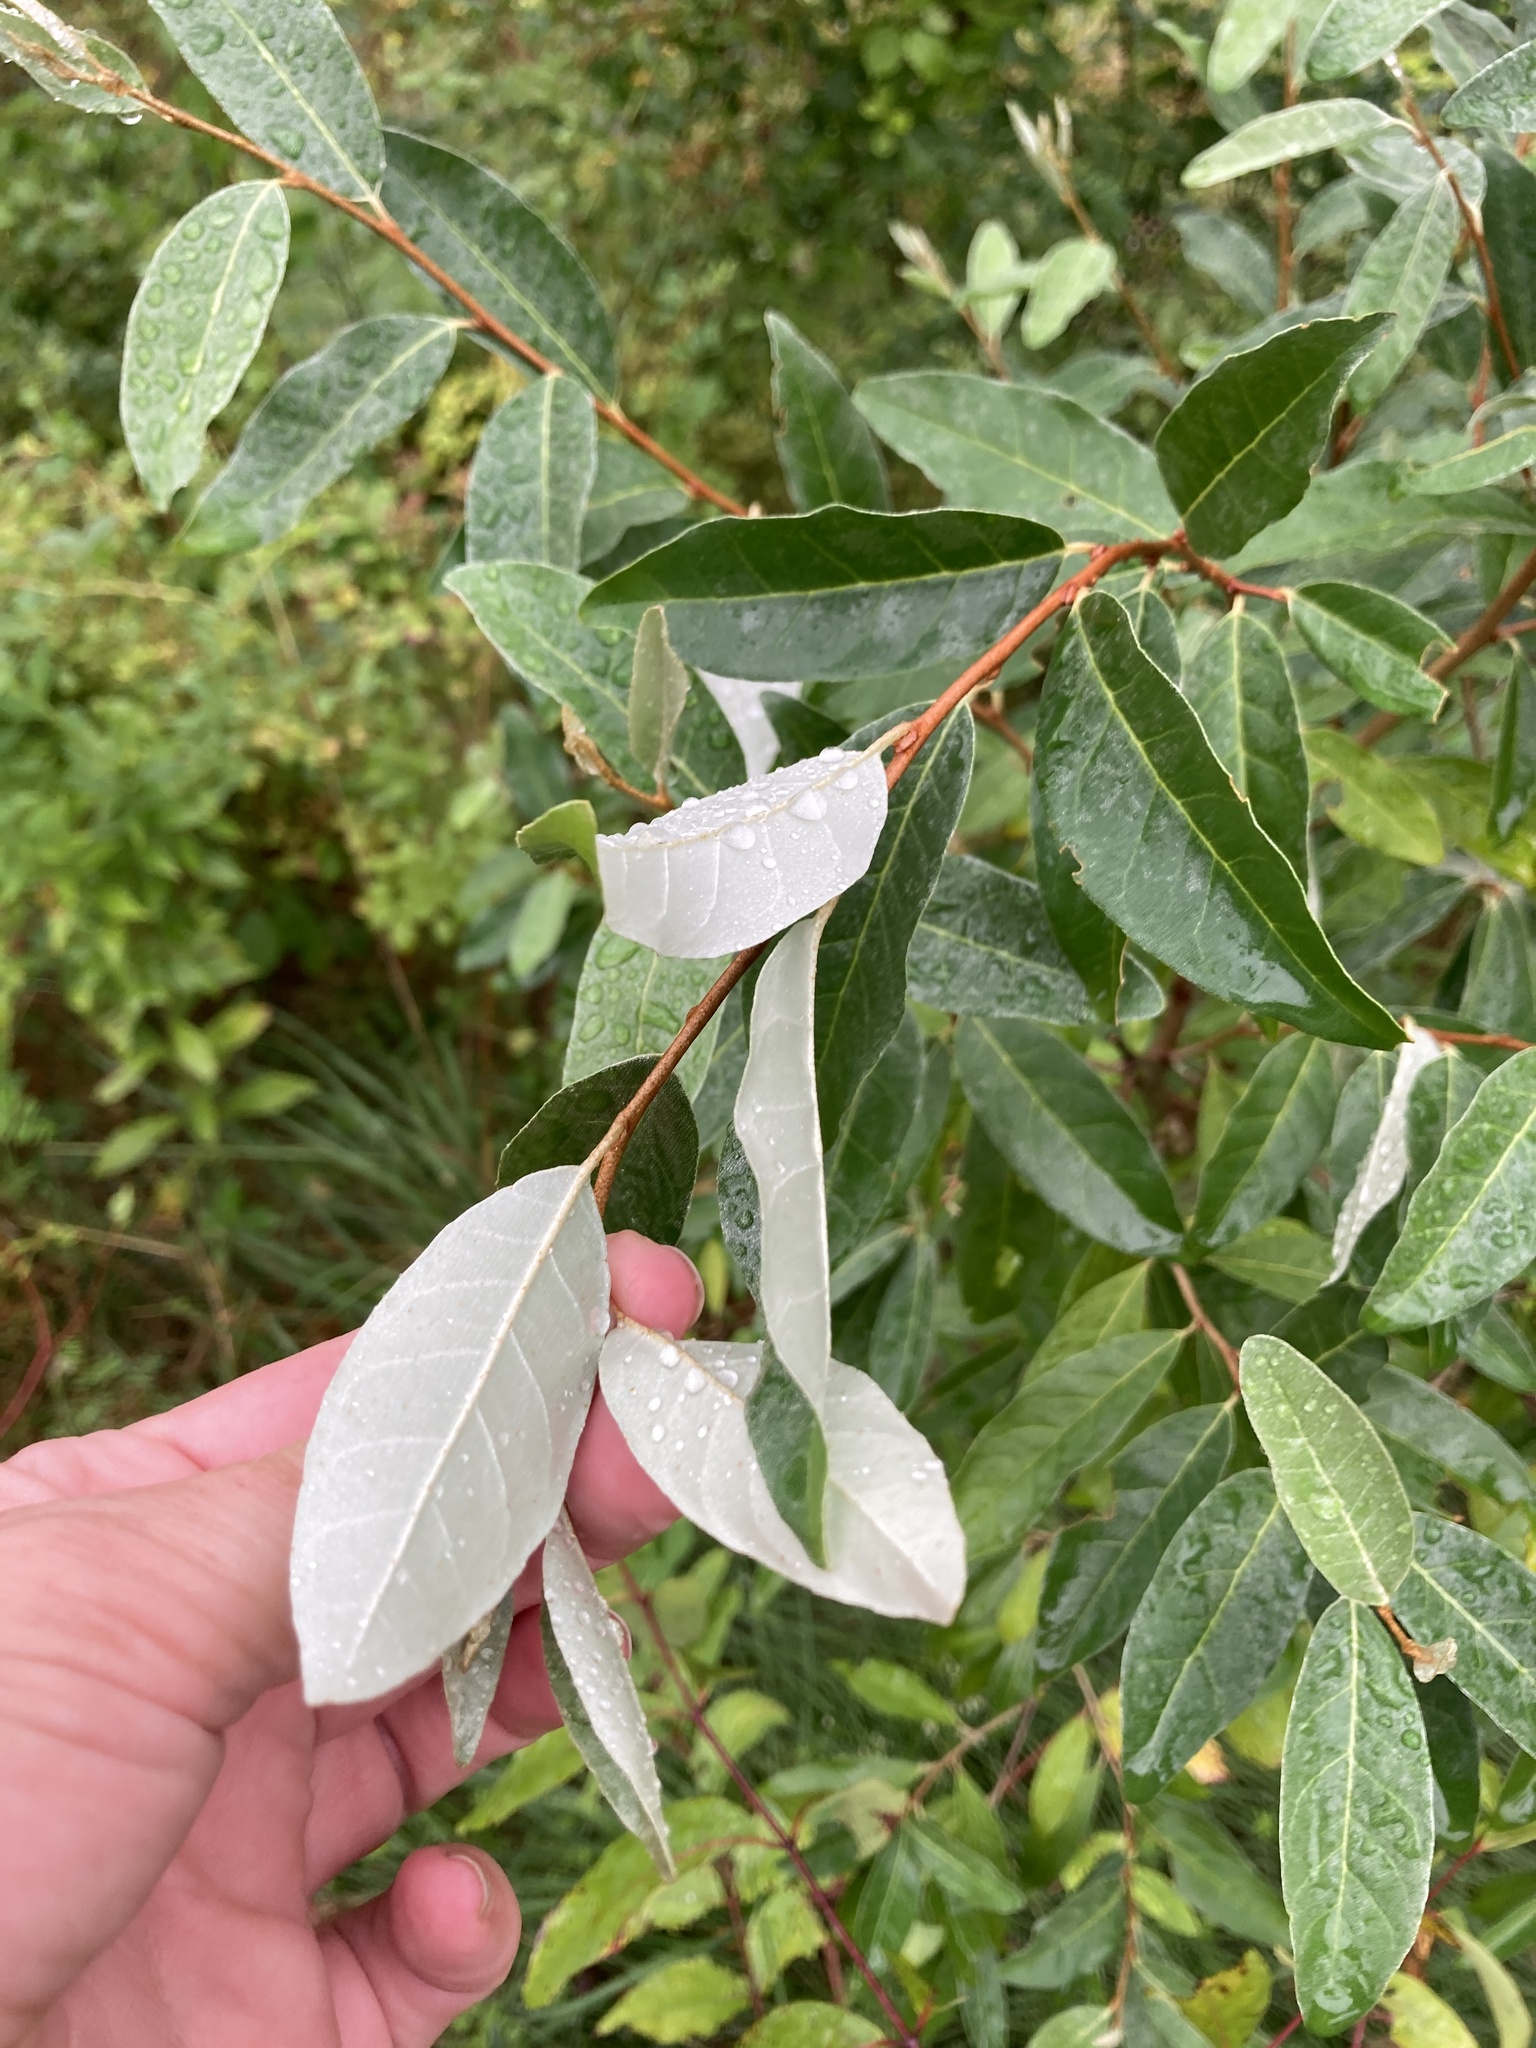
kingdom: Plantae
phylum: Tracheophyta
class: Magnoliopsida
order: Rosales
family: Elaeagnaceae
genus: Elaeagnus
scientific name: Elaeagnus umbellata
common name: Autumn olive
